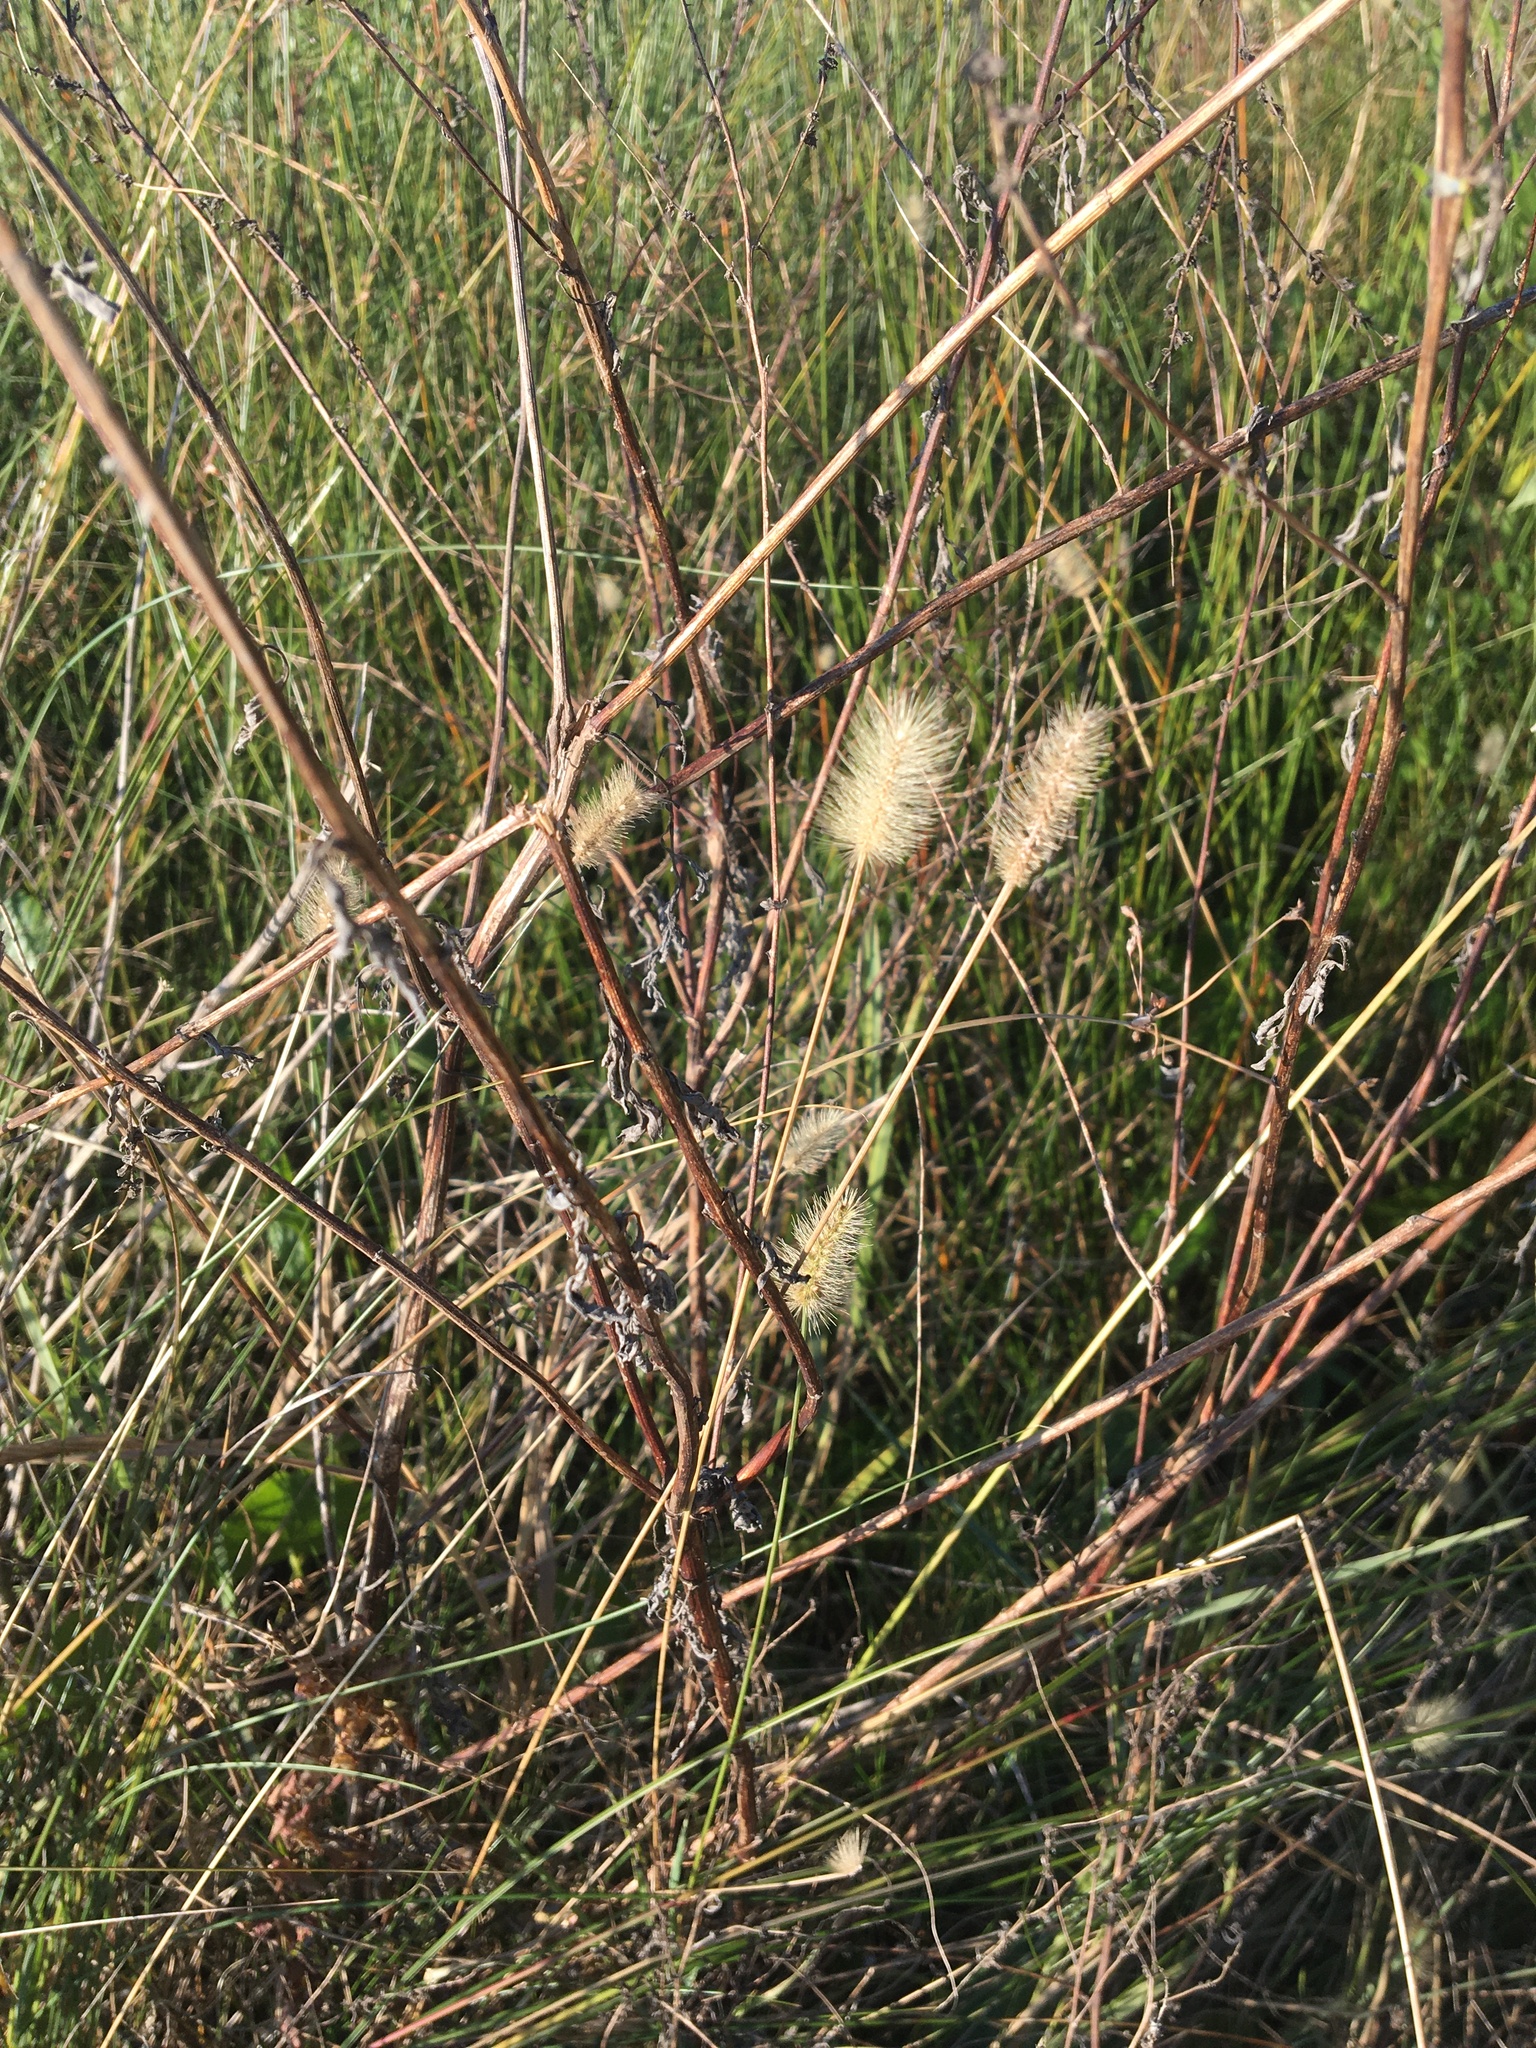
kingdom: Plantae
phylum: Tracheophyta
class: Liliopsida
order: Poales
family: Poaceae
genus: Setaria
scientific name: Setaria parviflora
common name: Knotroot bristle-grass
